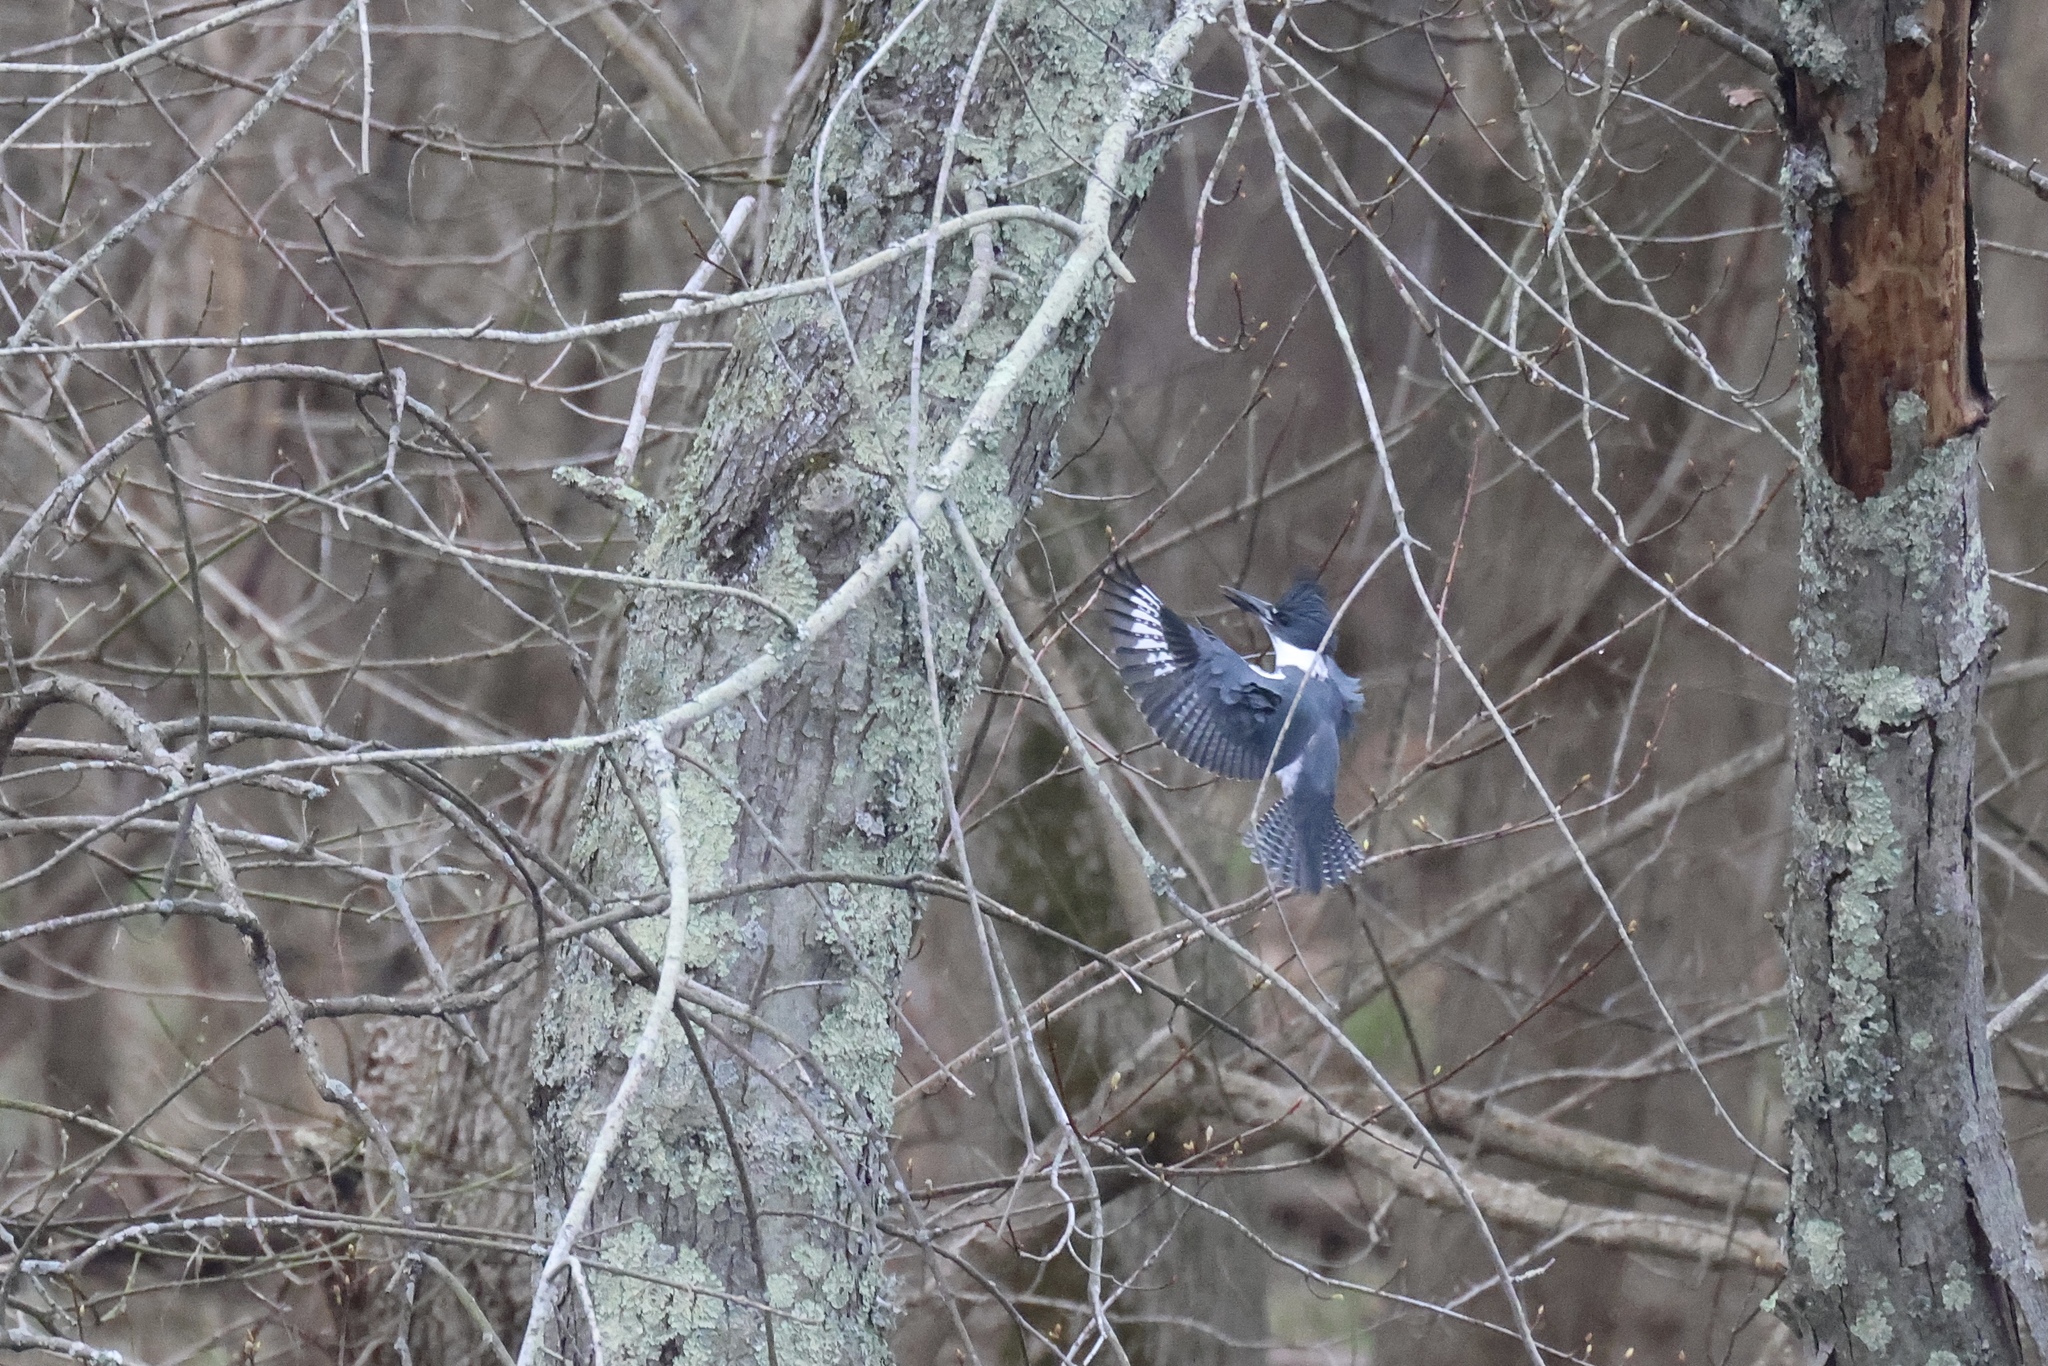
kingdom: Animalia
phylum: Chordata
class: Aves
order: Coraciiformes
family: Alcedinidae
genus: Megaceryle
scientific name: Megaceryle alcyon
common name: Belted kingfisher
